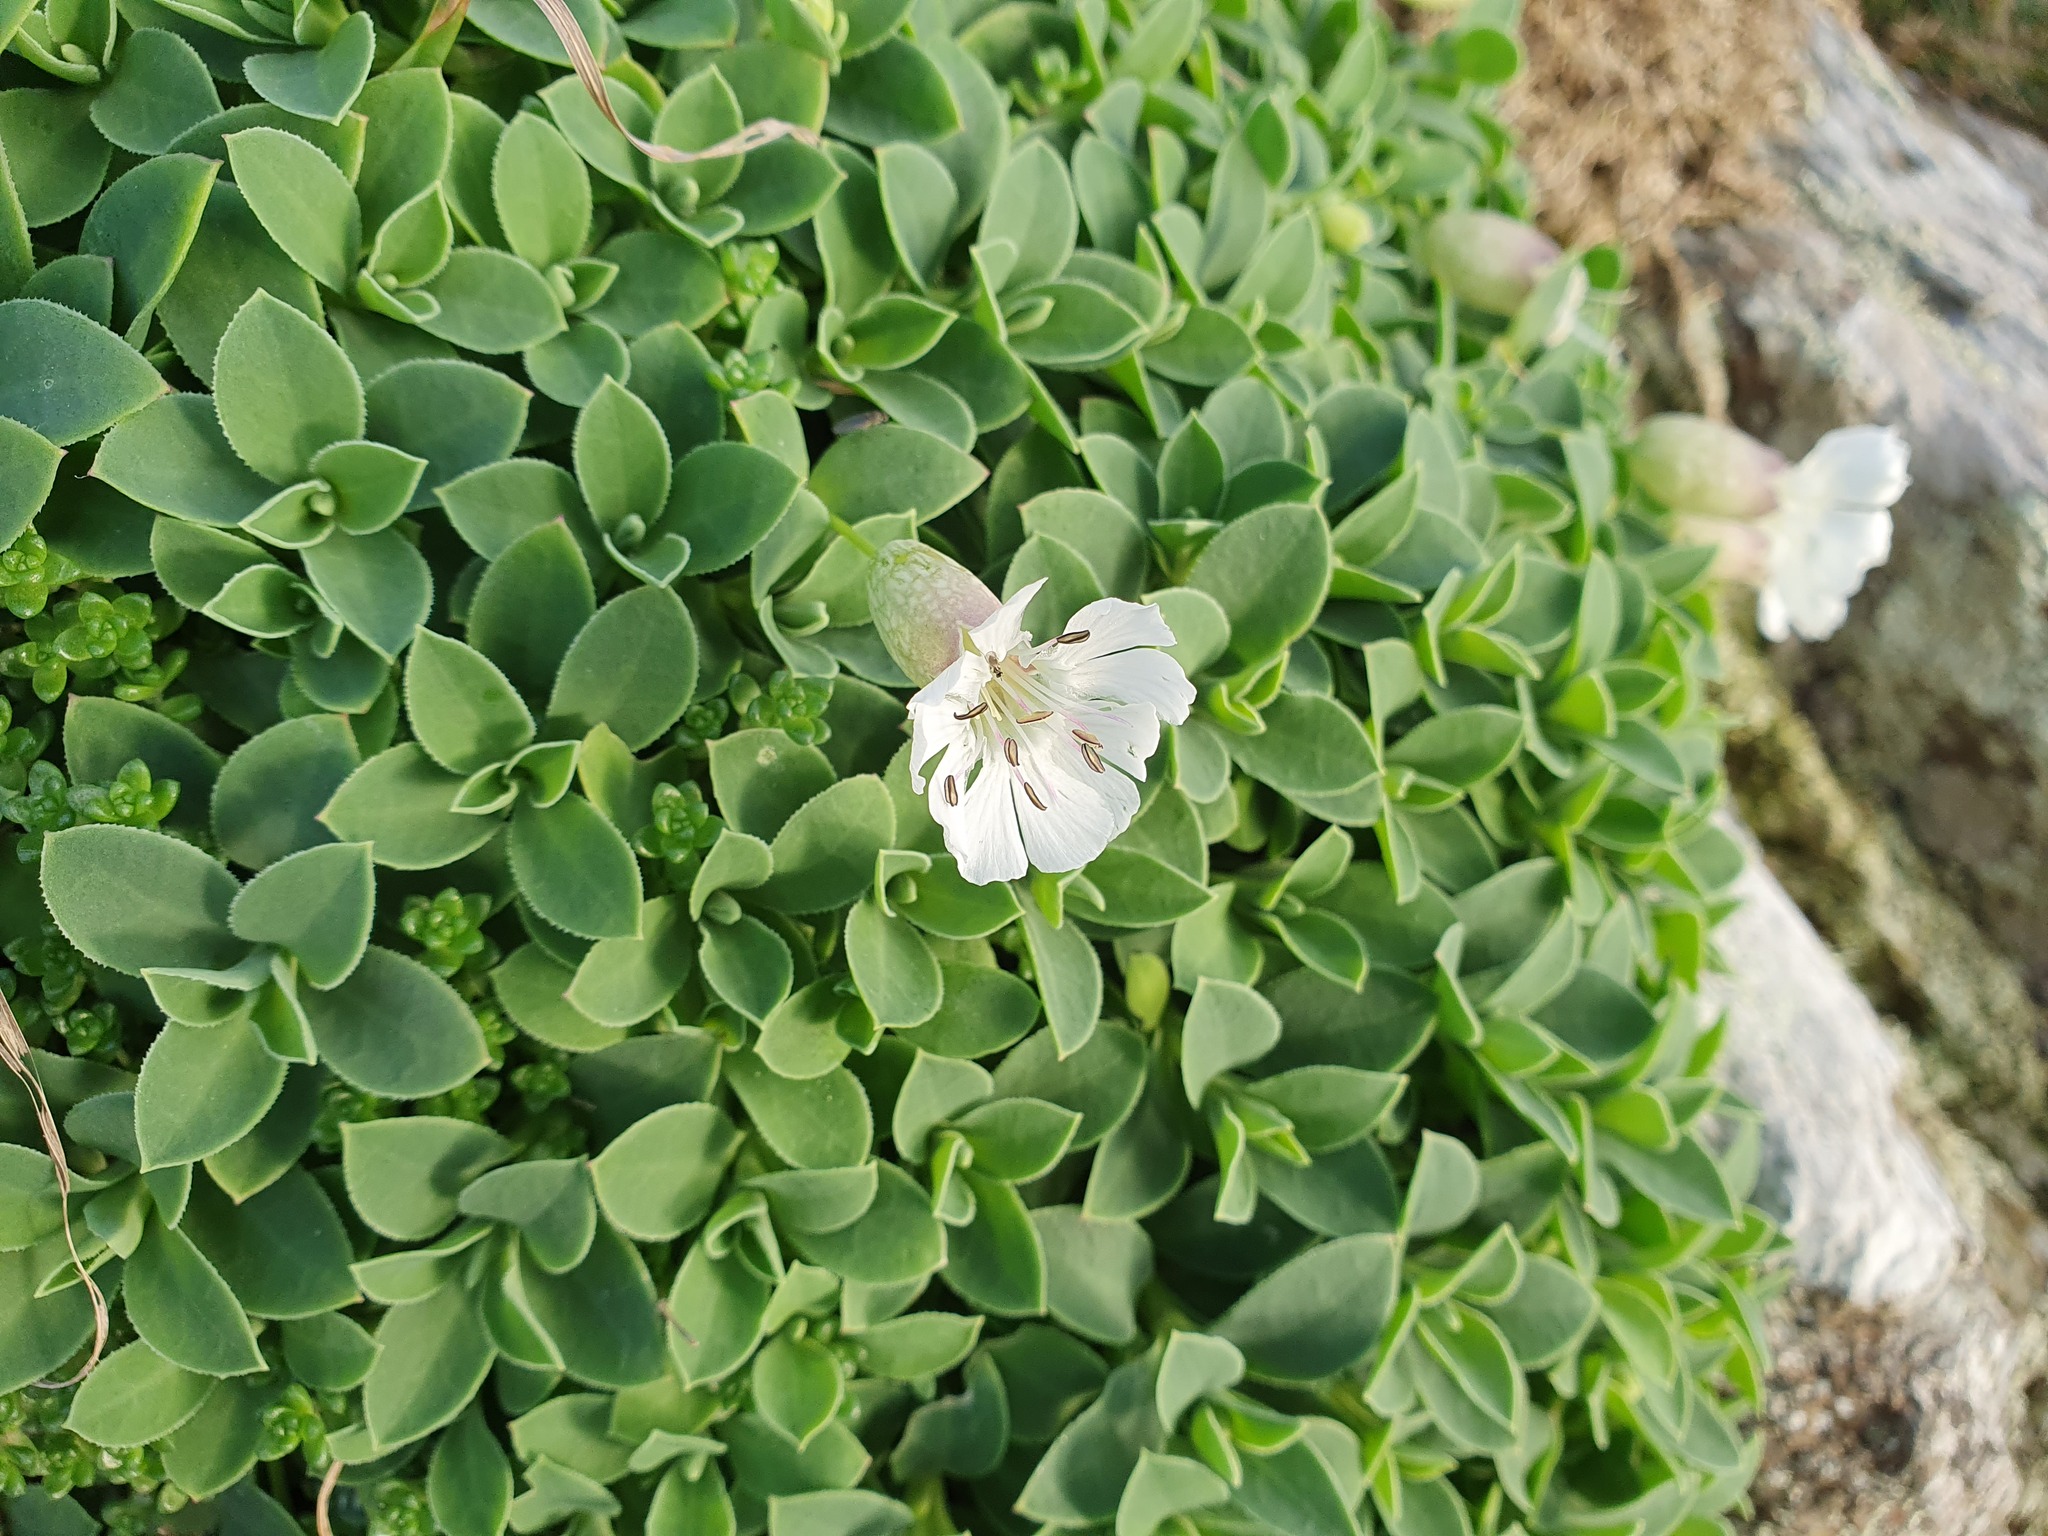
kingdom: Plantae
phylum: Tracheophyta
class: Magnoliopsida
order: Caryophyllales
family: Caryophyllaceae
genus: Silene
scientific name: Silene uniflora
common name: Sea campion
